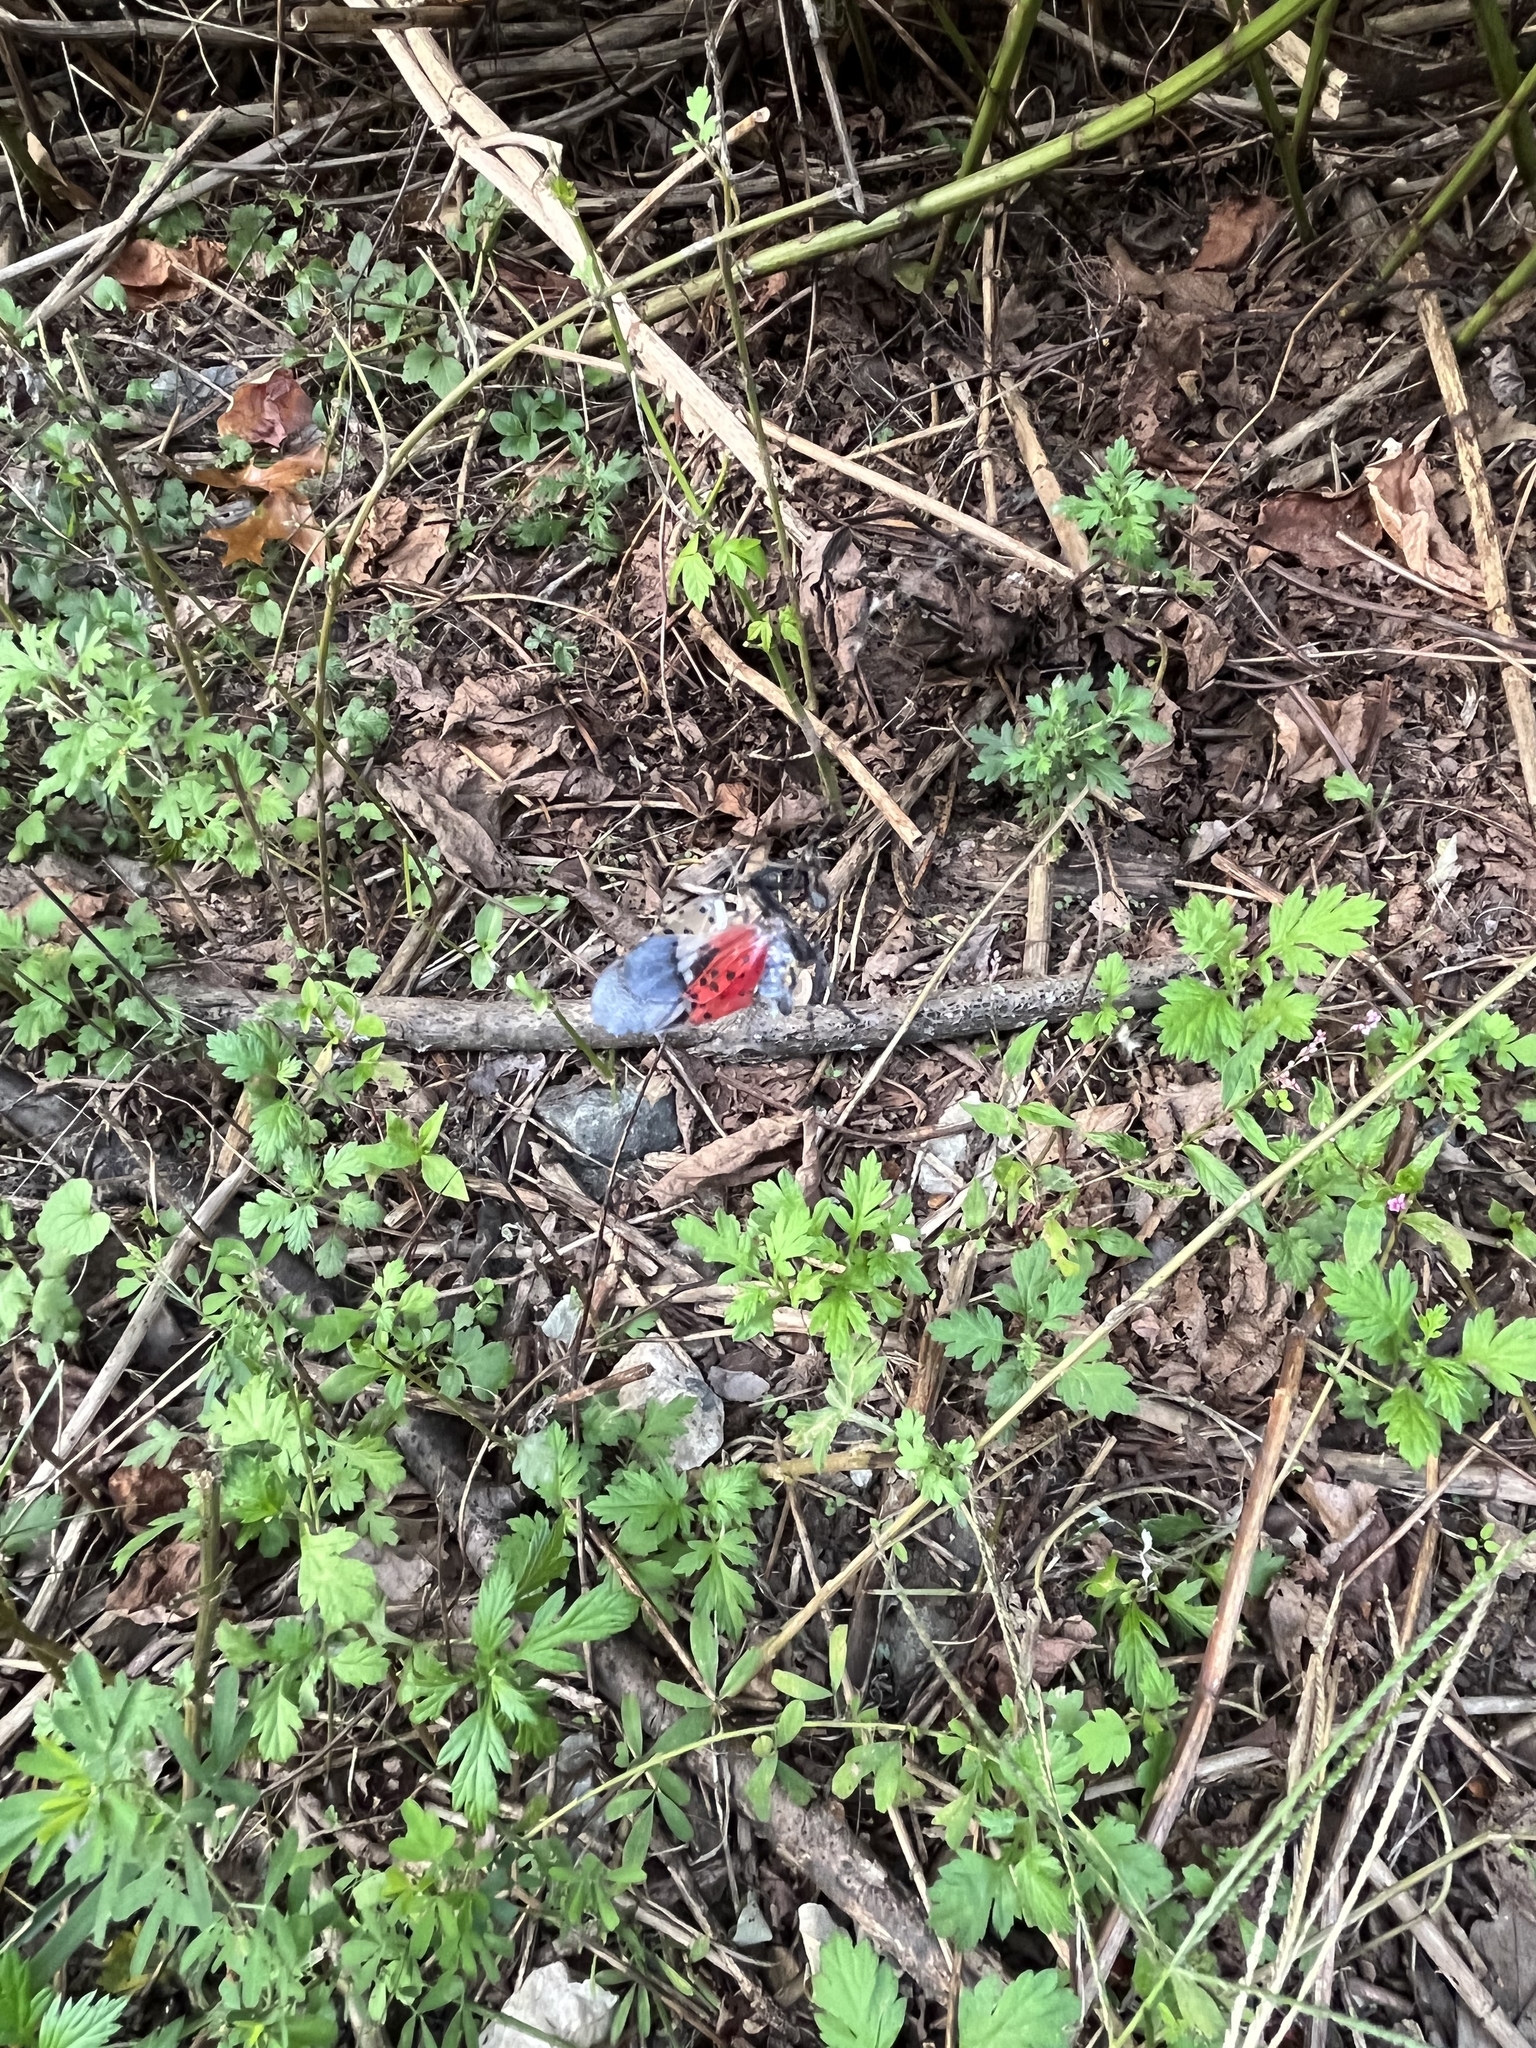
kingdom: Animalia
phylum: Arthropoda
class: Insecta
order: Hemiptera
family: Fulgoridae
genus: Lycorma
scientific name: Lycorma delicatula
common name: Spotted lanternfly
